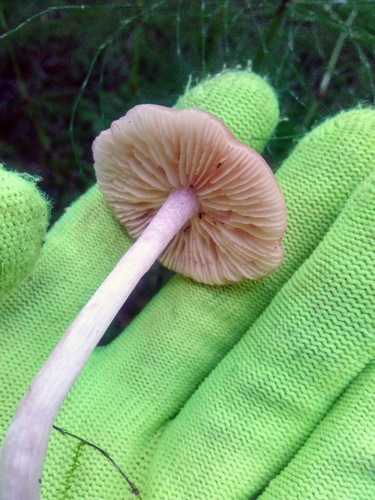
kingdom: Fungi
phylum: Basidiomycota
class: Agaricomycetes
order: Agaricales
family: Entolomataceae
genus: Entoloma
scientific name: Entoloma
